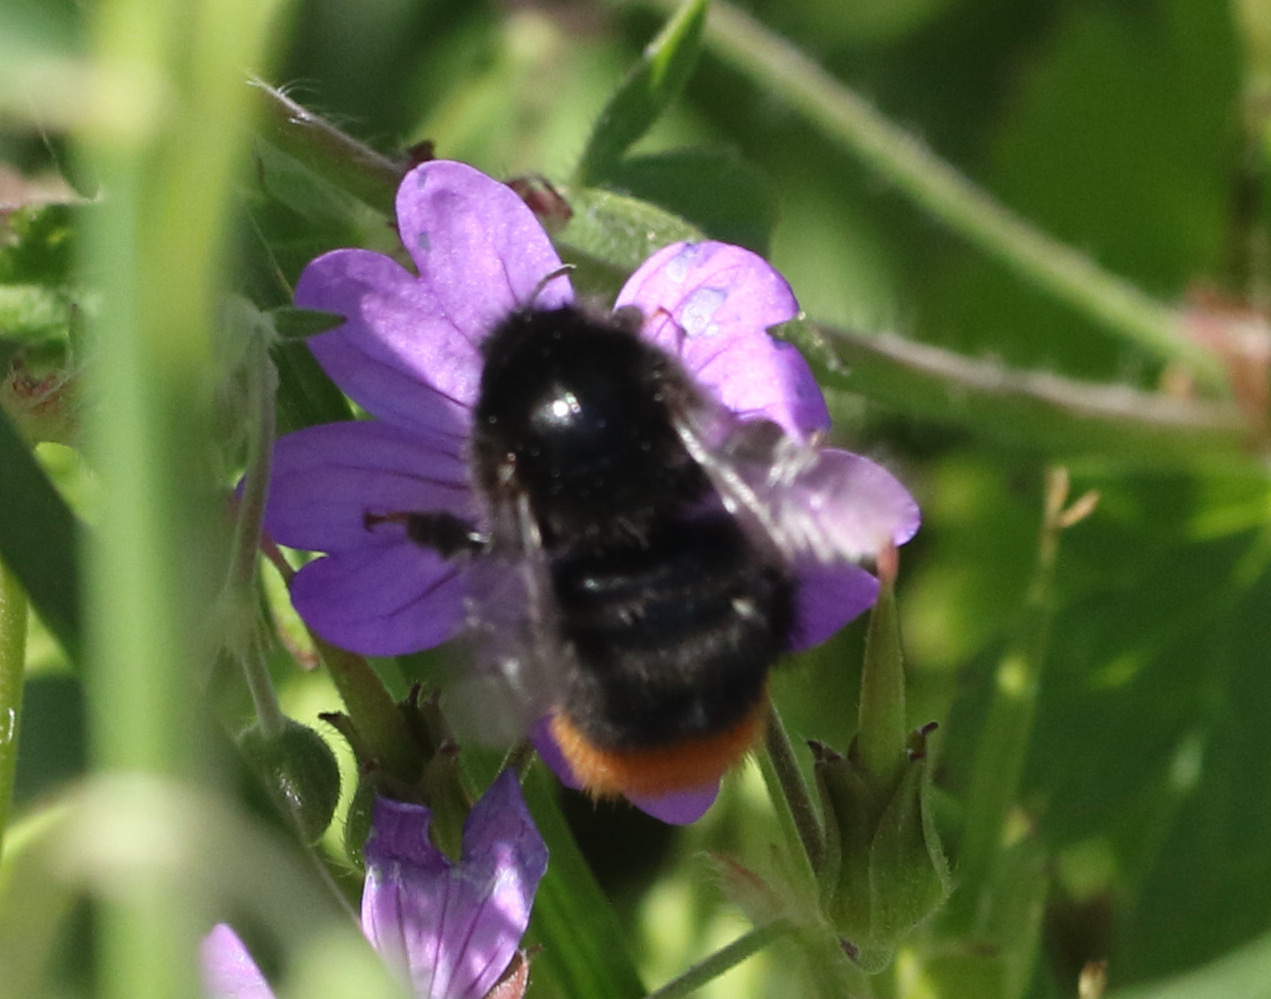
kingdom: Animalia
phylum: Arthropoda
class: Insecta
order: Hymenoptera
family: Apidae
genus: Bombus
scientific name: Bombus lapidarius
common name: Large red-tailed humble-bee
